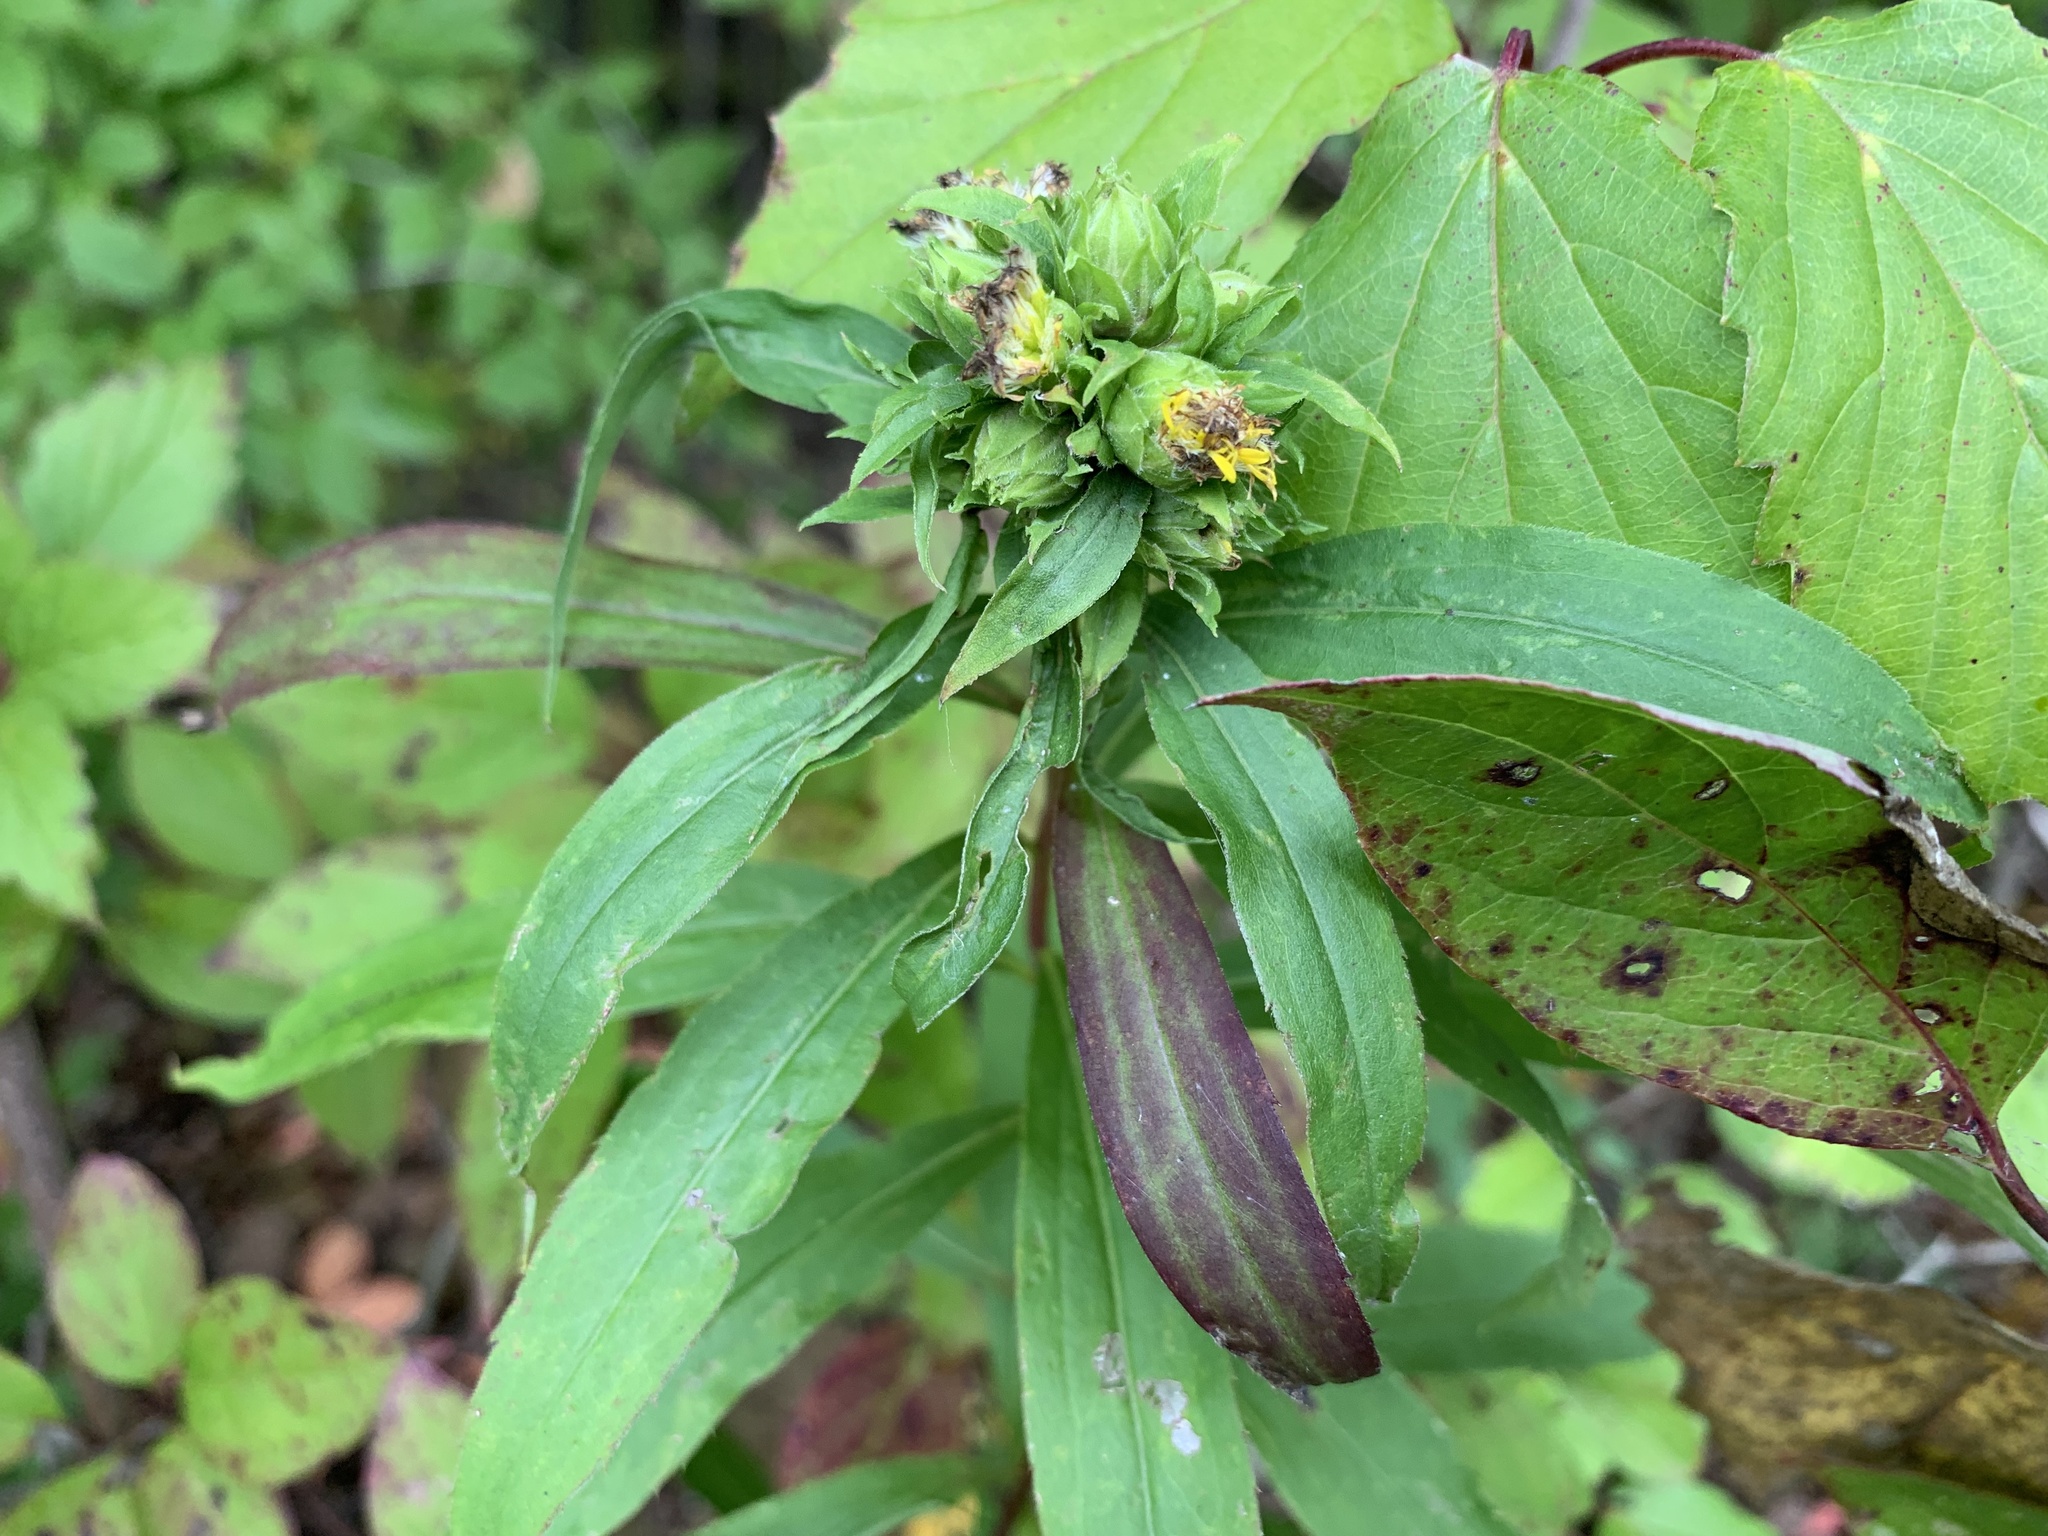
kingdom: Animalia
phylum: Arthropoda
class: Insecta
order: Diptera
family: Tephritidae
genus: Procecidochares
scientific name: Procecidochares atra
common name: Goldenrod brussels sprout gall fly
